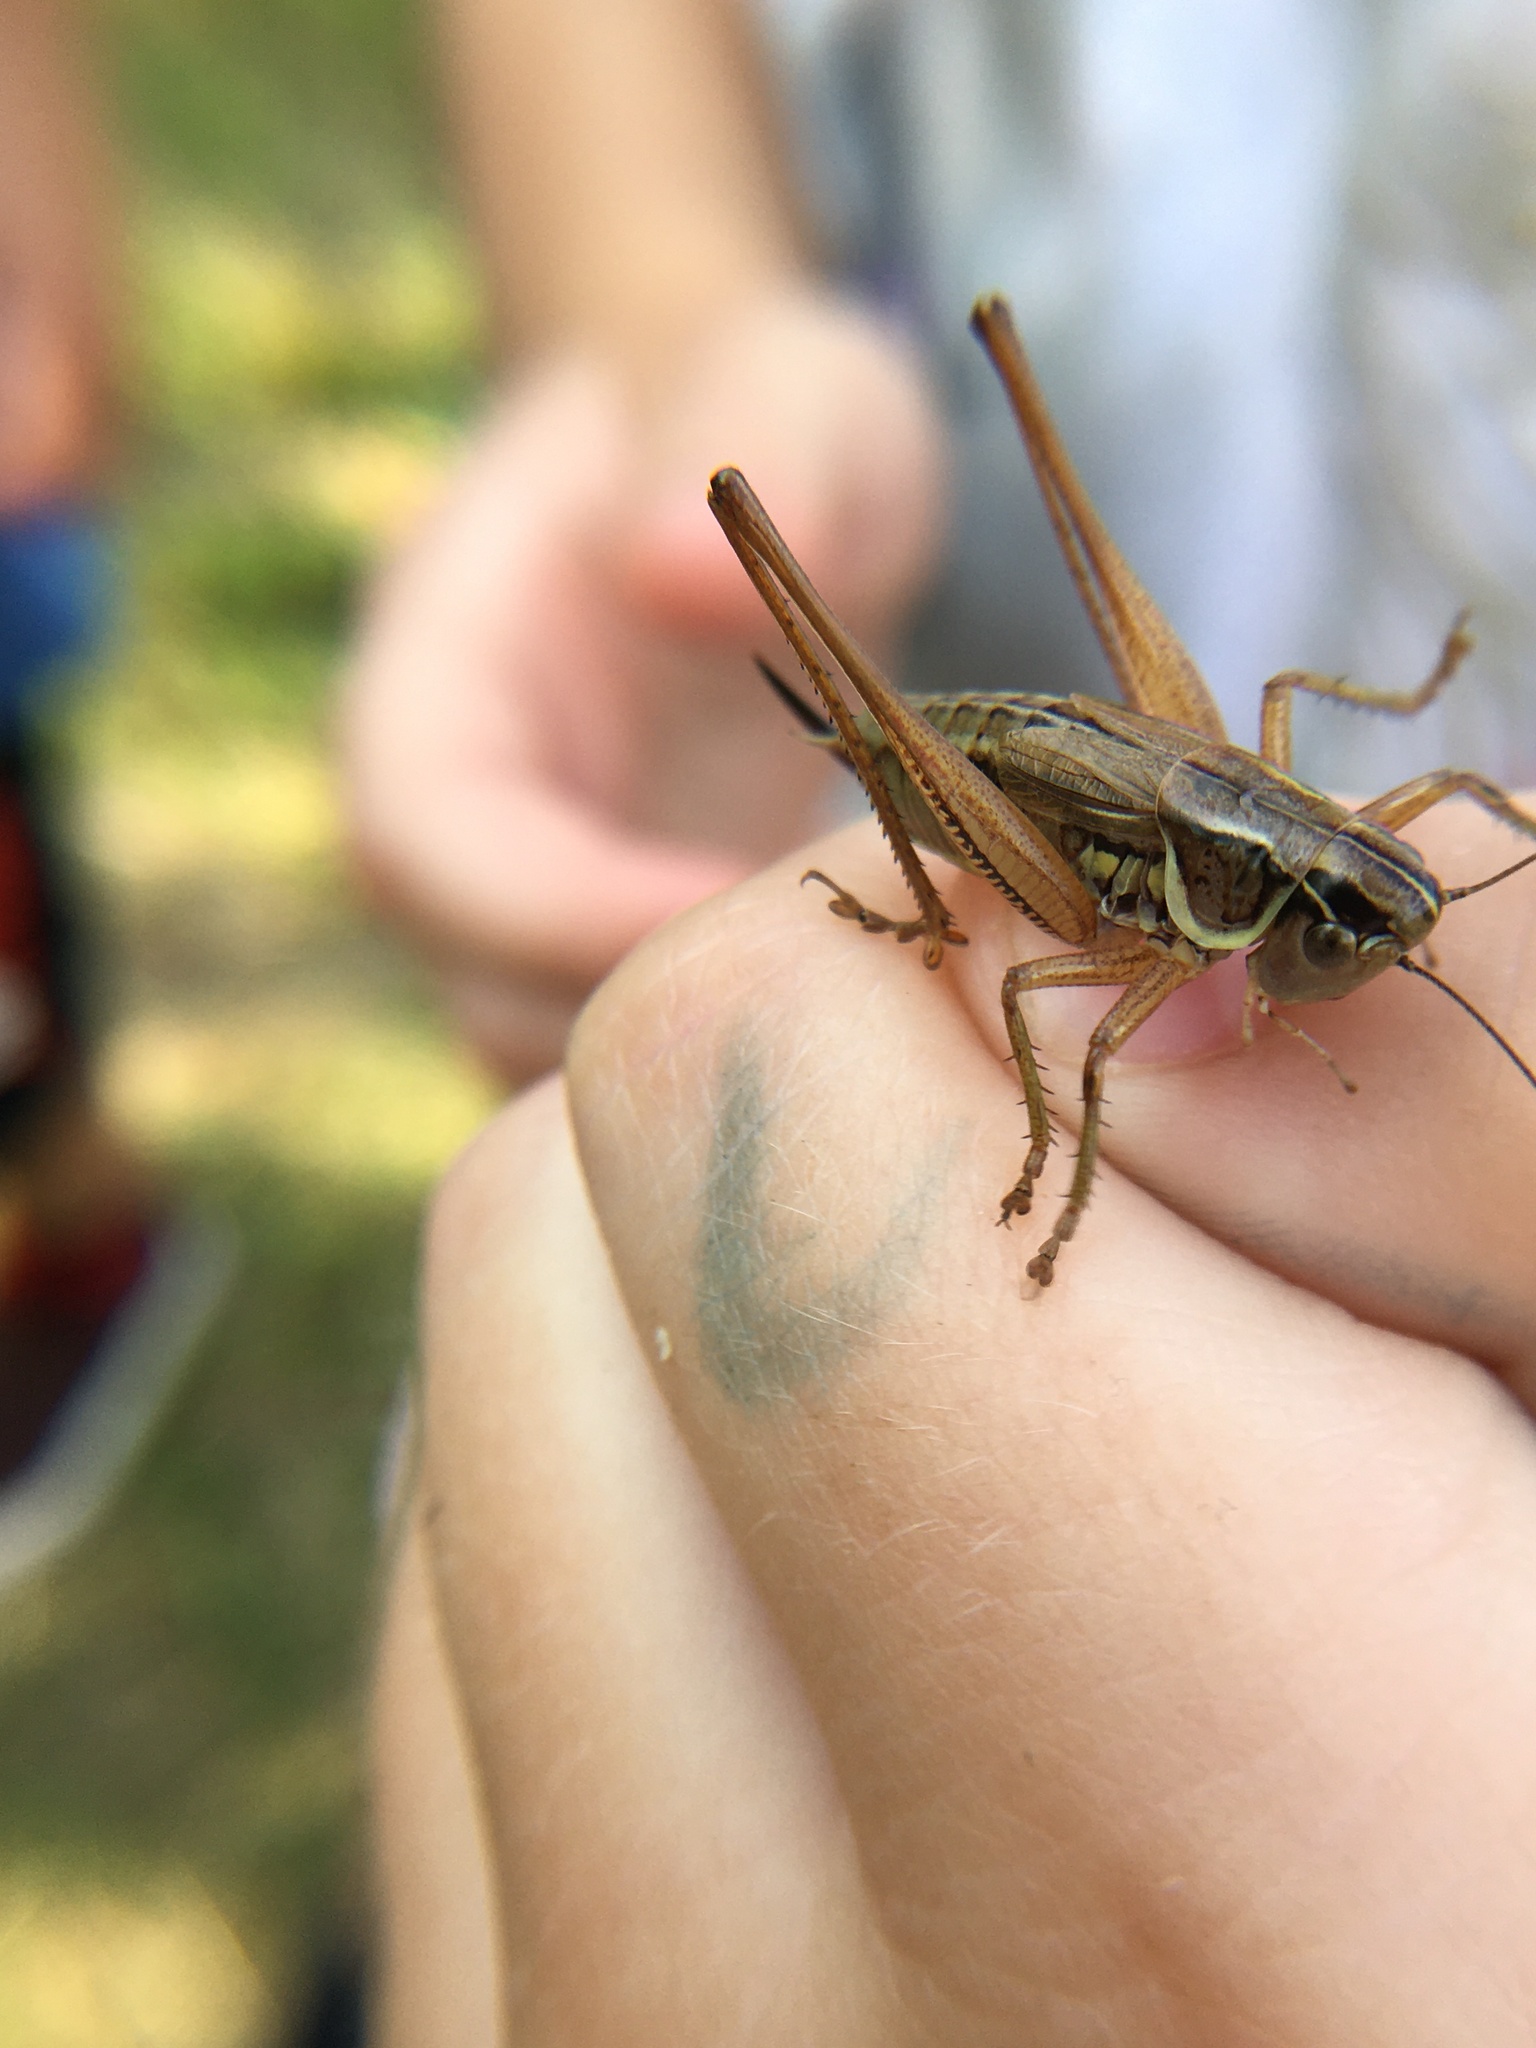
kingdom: Animalia
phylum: Arthropoda
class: Insecta
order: Orthoptera
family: Tettigoniidae
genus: Roeseliana
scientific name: Roeseliana roeselii
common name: Roesel's bush cricket
